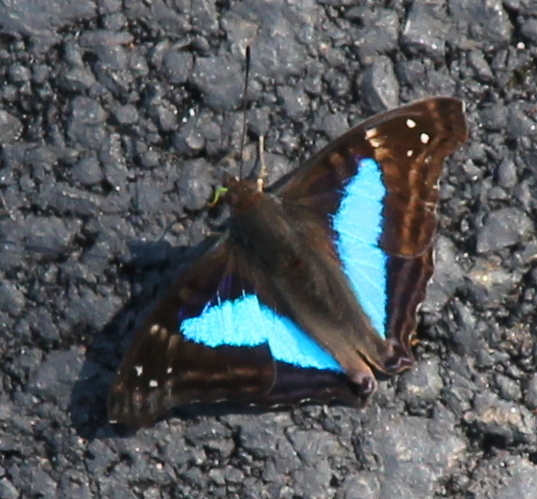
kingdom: Animalia
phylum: Arthropoda
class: Insecta
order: Lepidoptera
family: Nymphalidae
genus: Doxocopa
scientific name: Doxocopa laurentia
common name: Turquoise emperor
